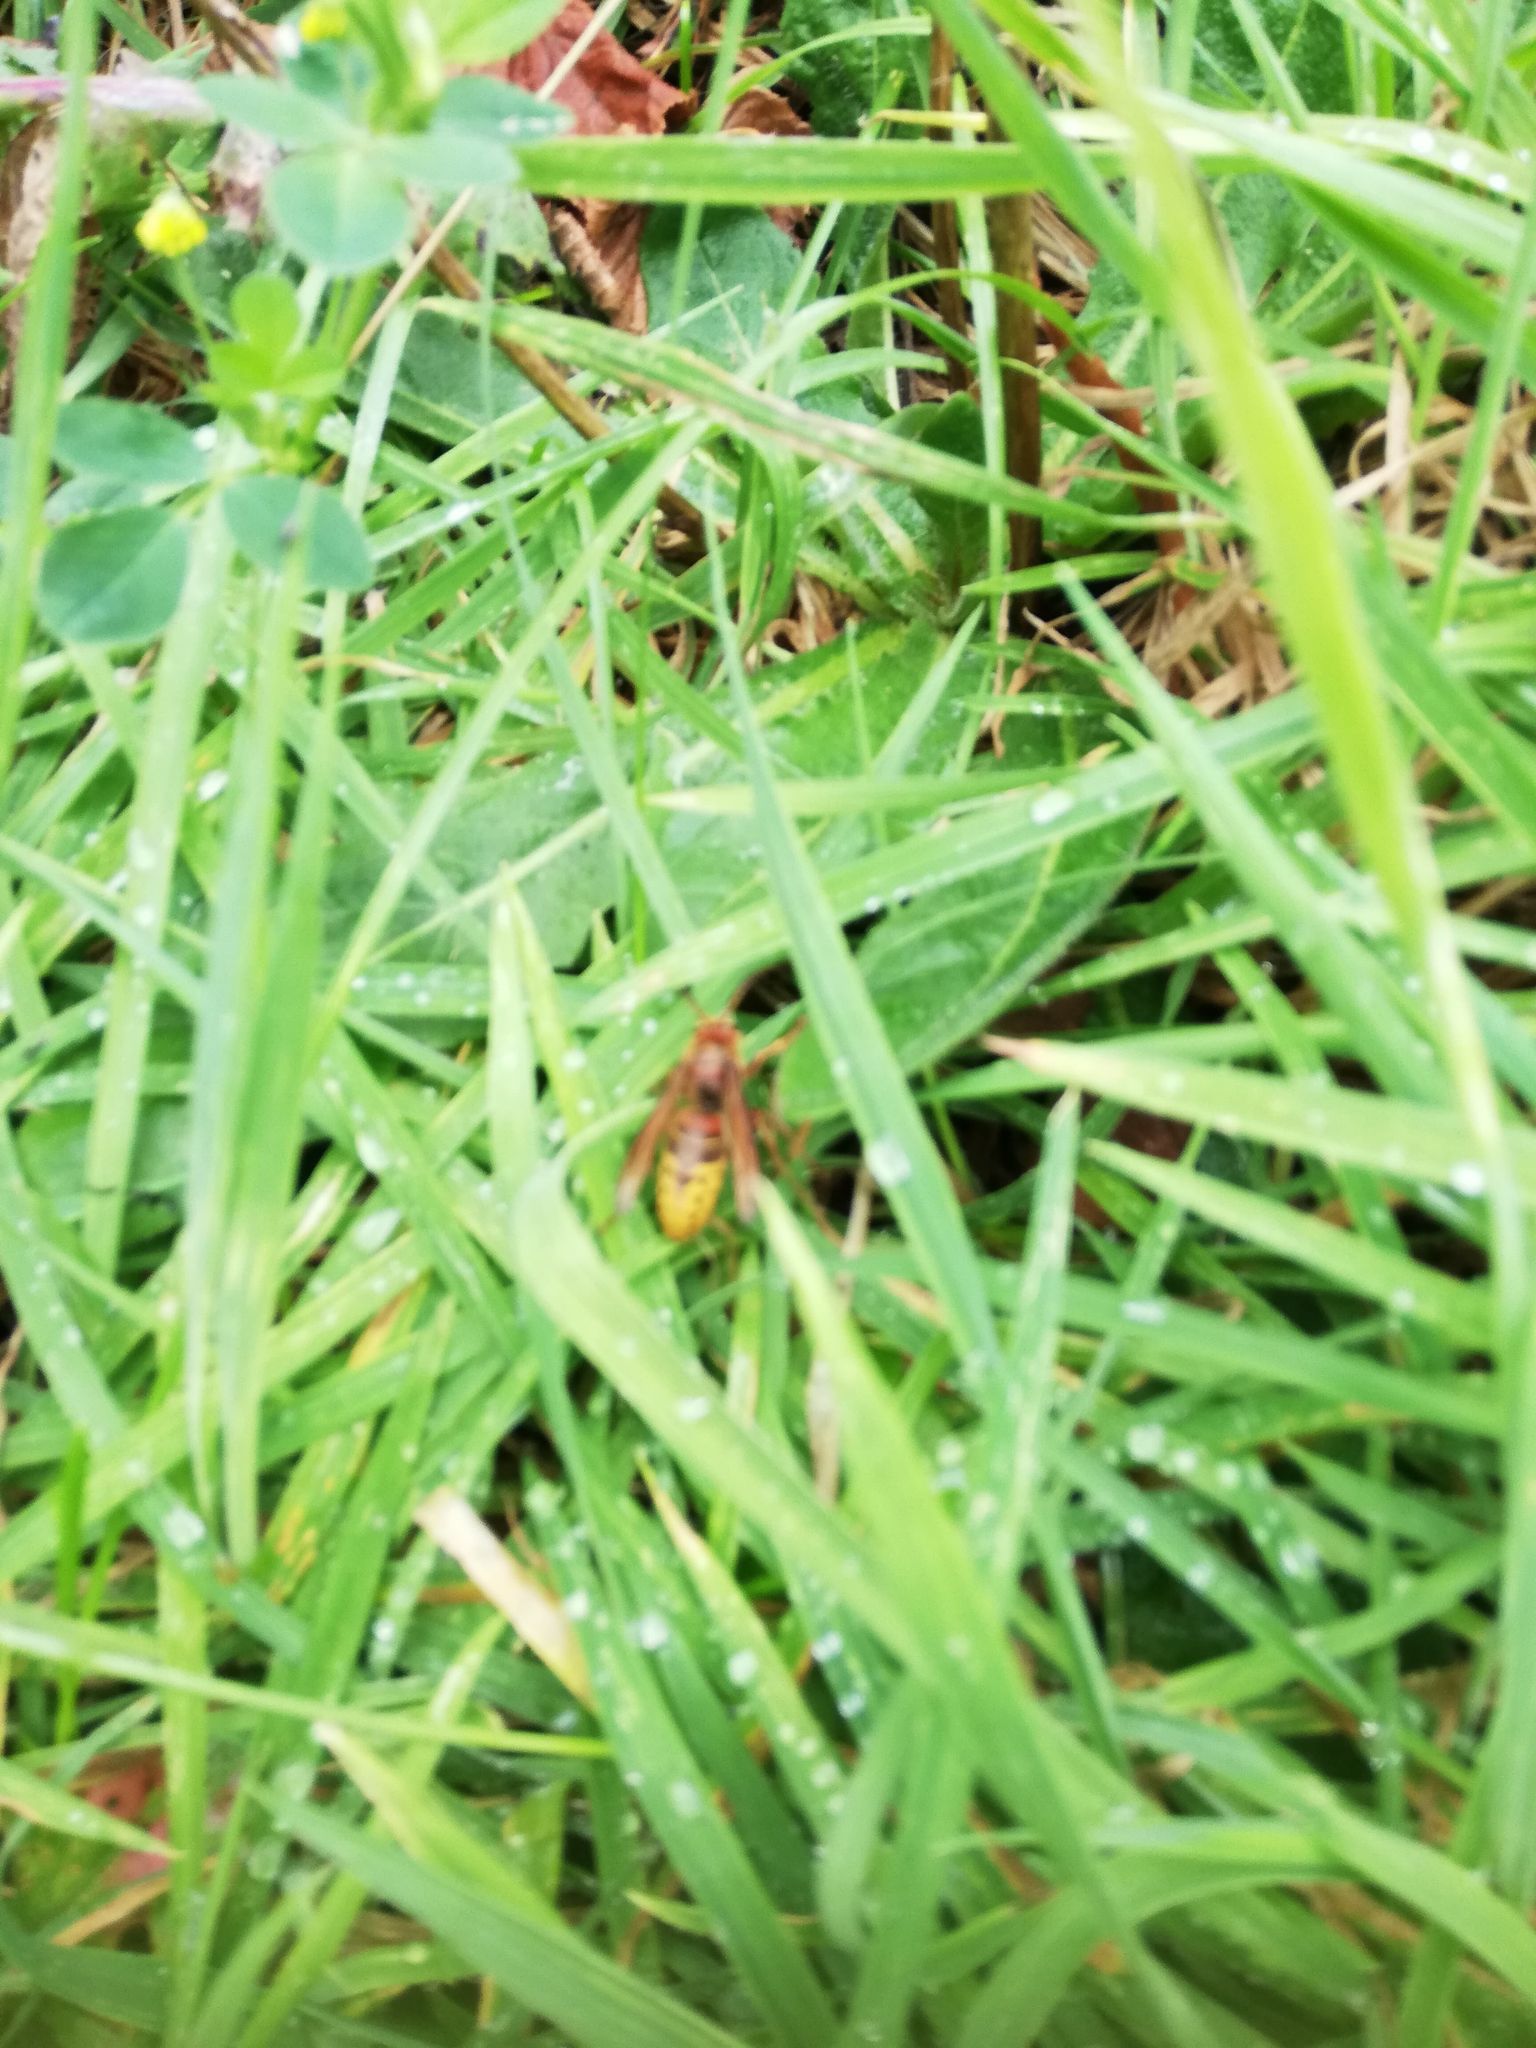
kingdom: Animalia
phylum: Arthropoda
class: Insecta
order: Hymenoptera
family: Vespidae
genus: Vespa
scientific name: Vespa crabro
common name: Hornet
